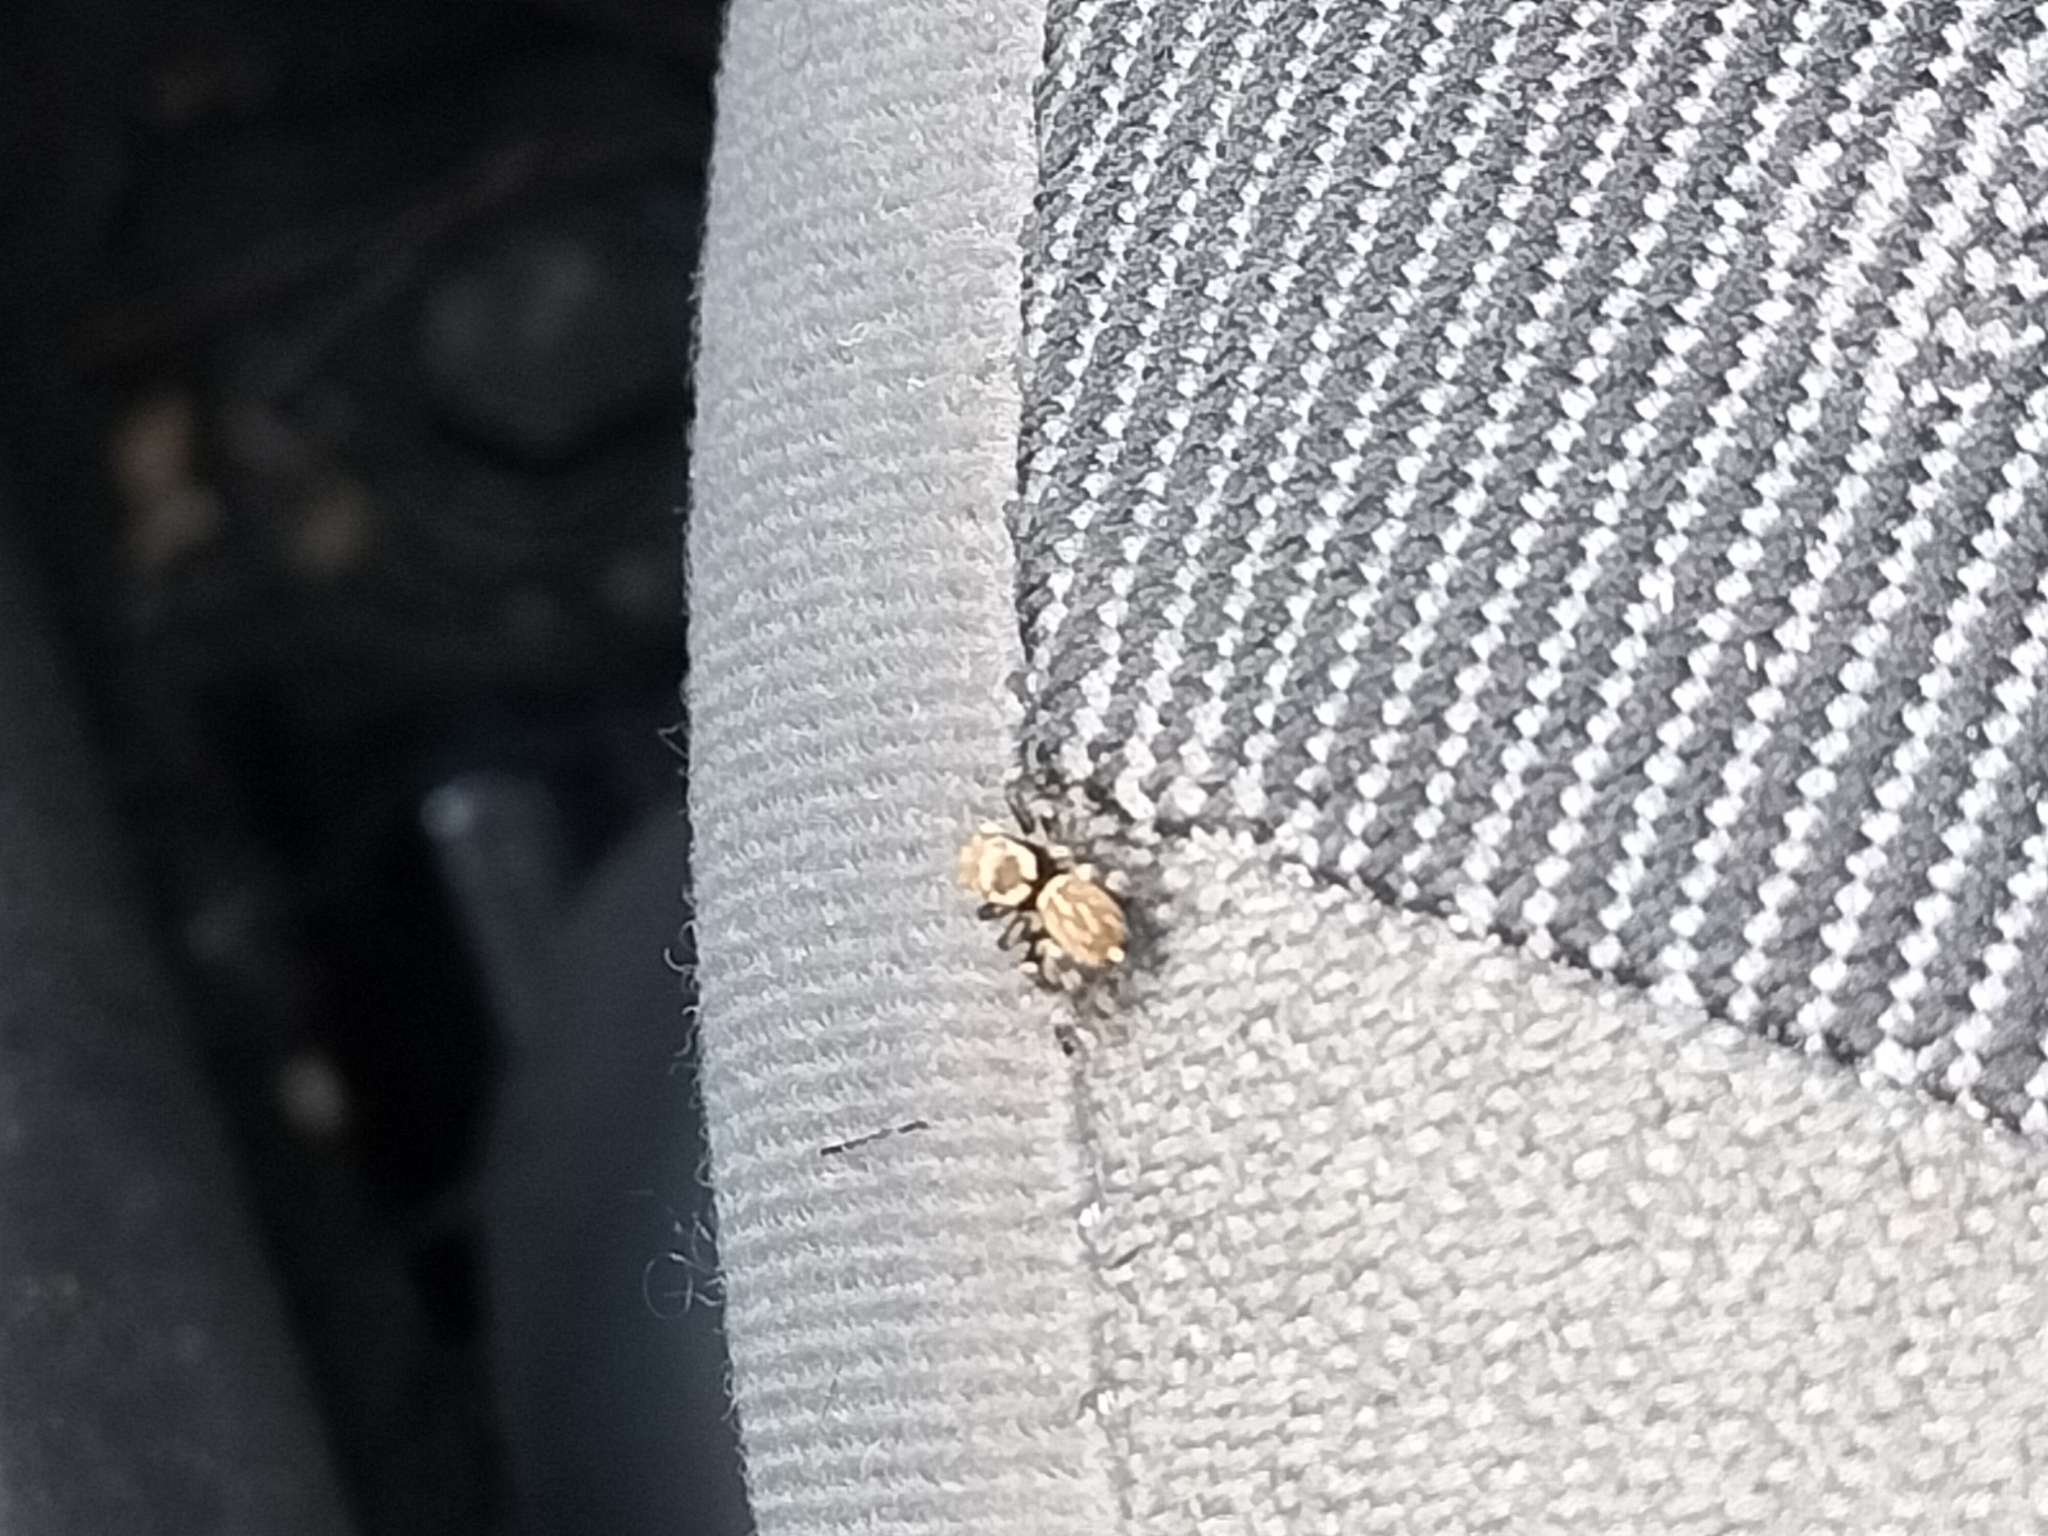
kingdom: Animalia
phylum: Arthropoda
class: Arachnida
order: Araneae
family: Salticidae
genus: Maratus
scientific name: Maratus griseus
